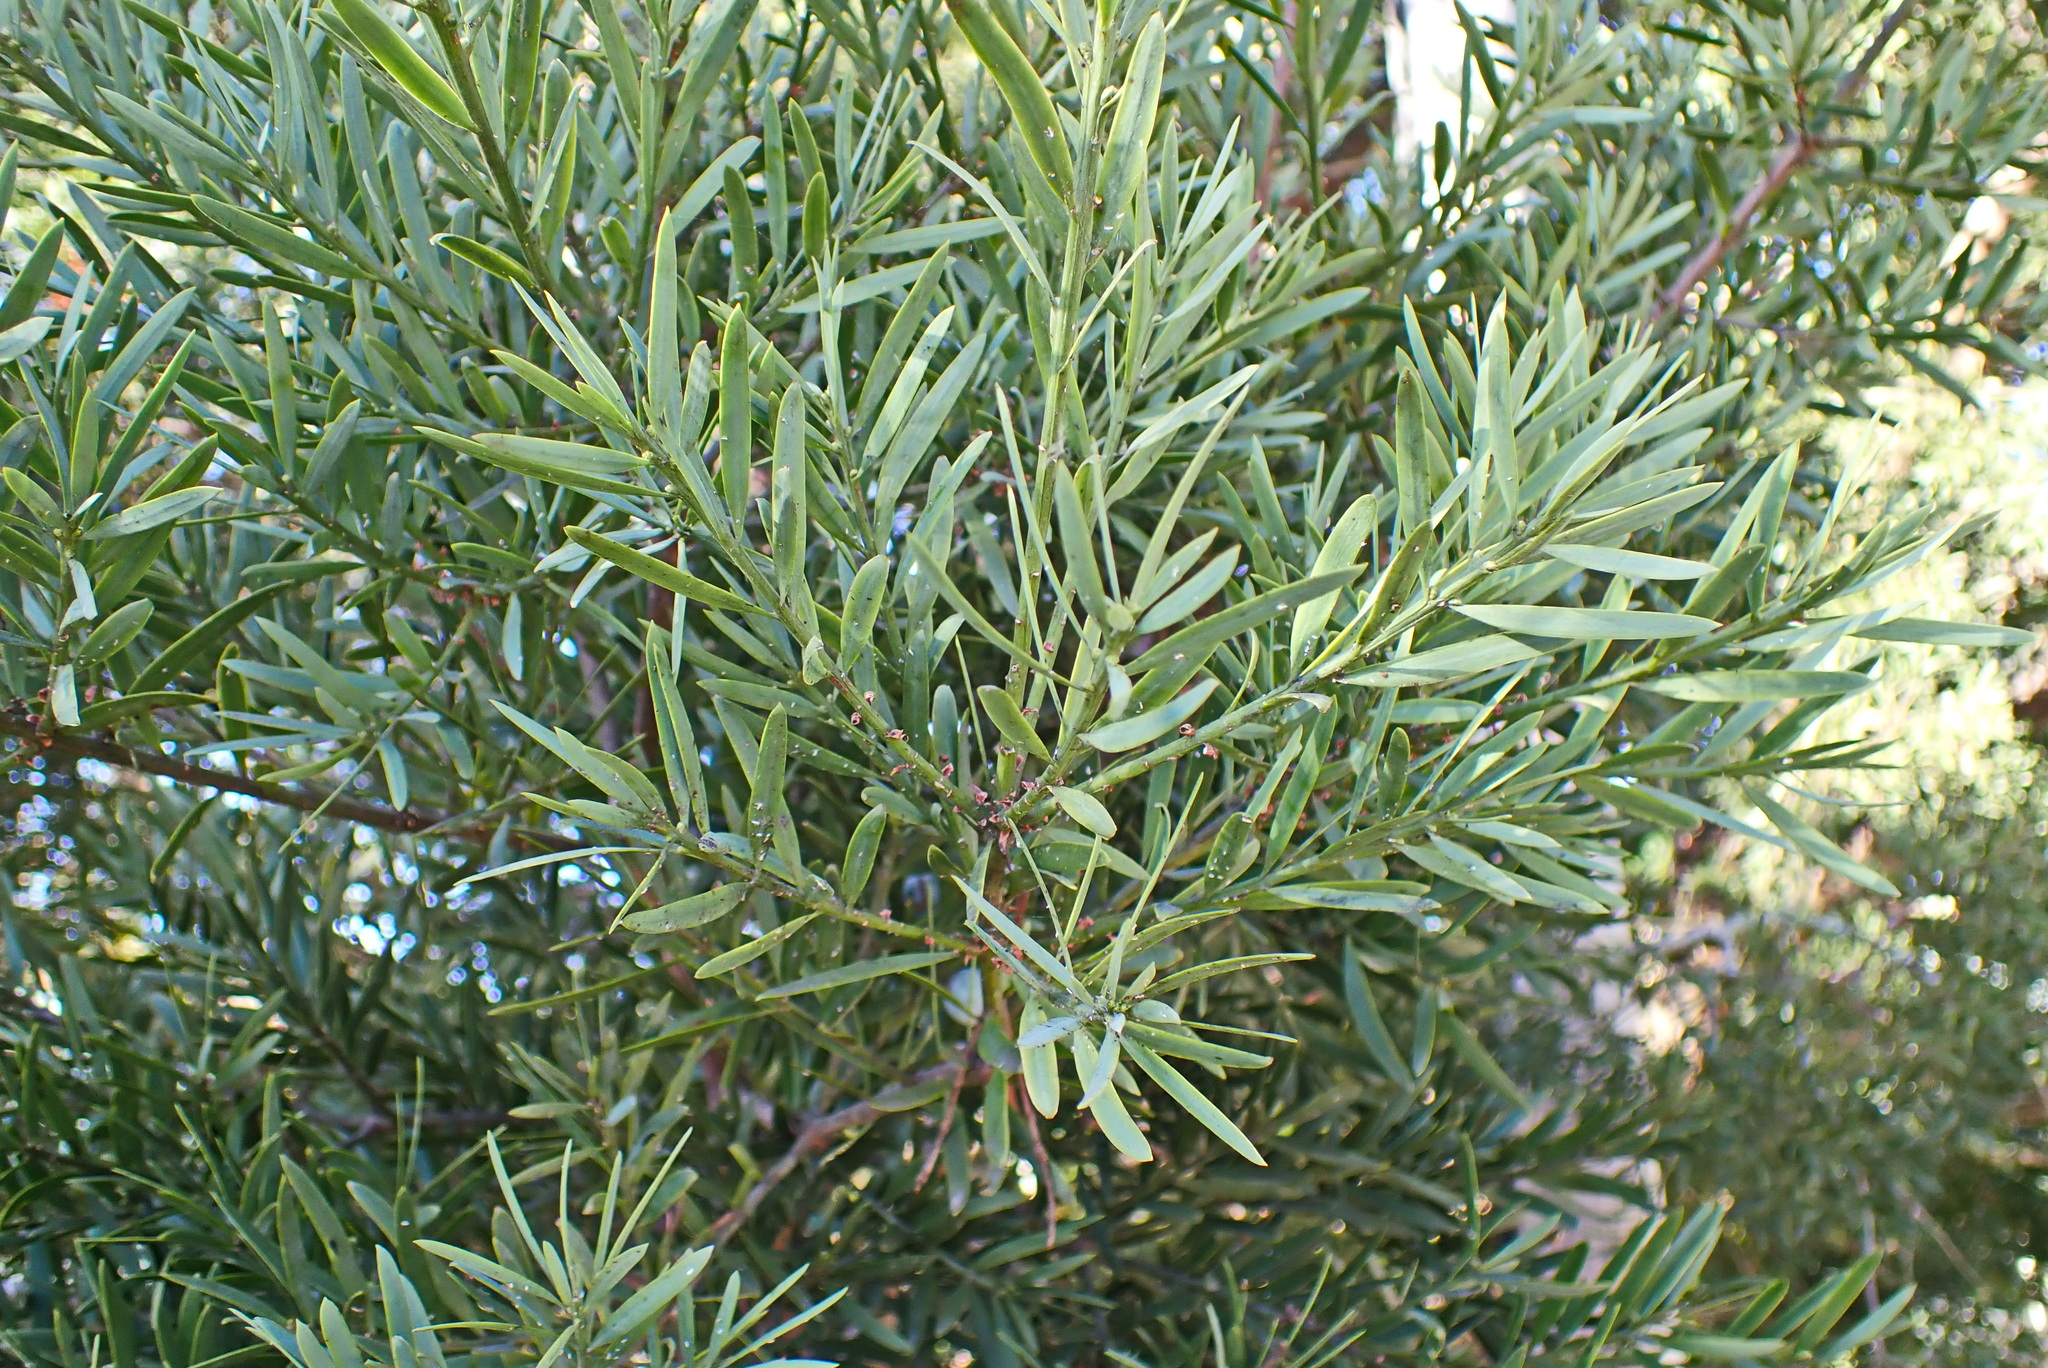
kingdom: Plantae
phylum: Tracheophyta
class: Pinopsida
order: Pinales
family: Podocarpaceae
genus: Afrocarpus
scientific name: Afrocarpus falcatus
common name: Bastard yellowwood
